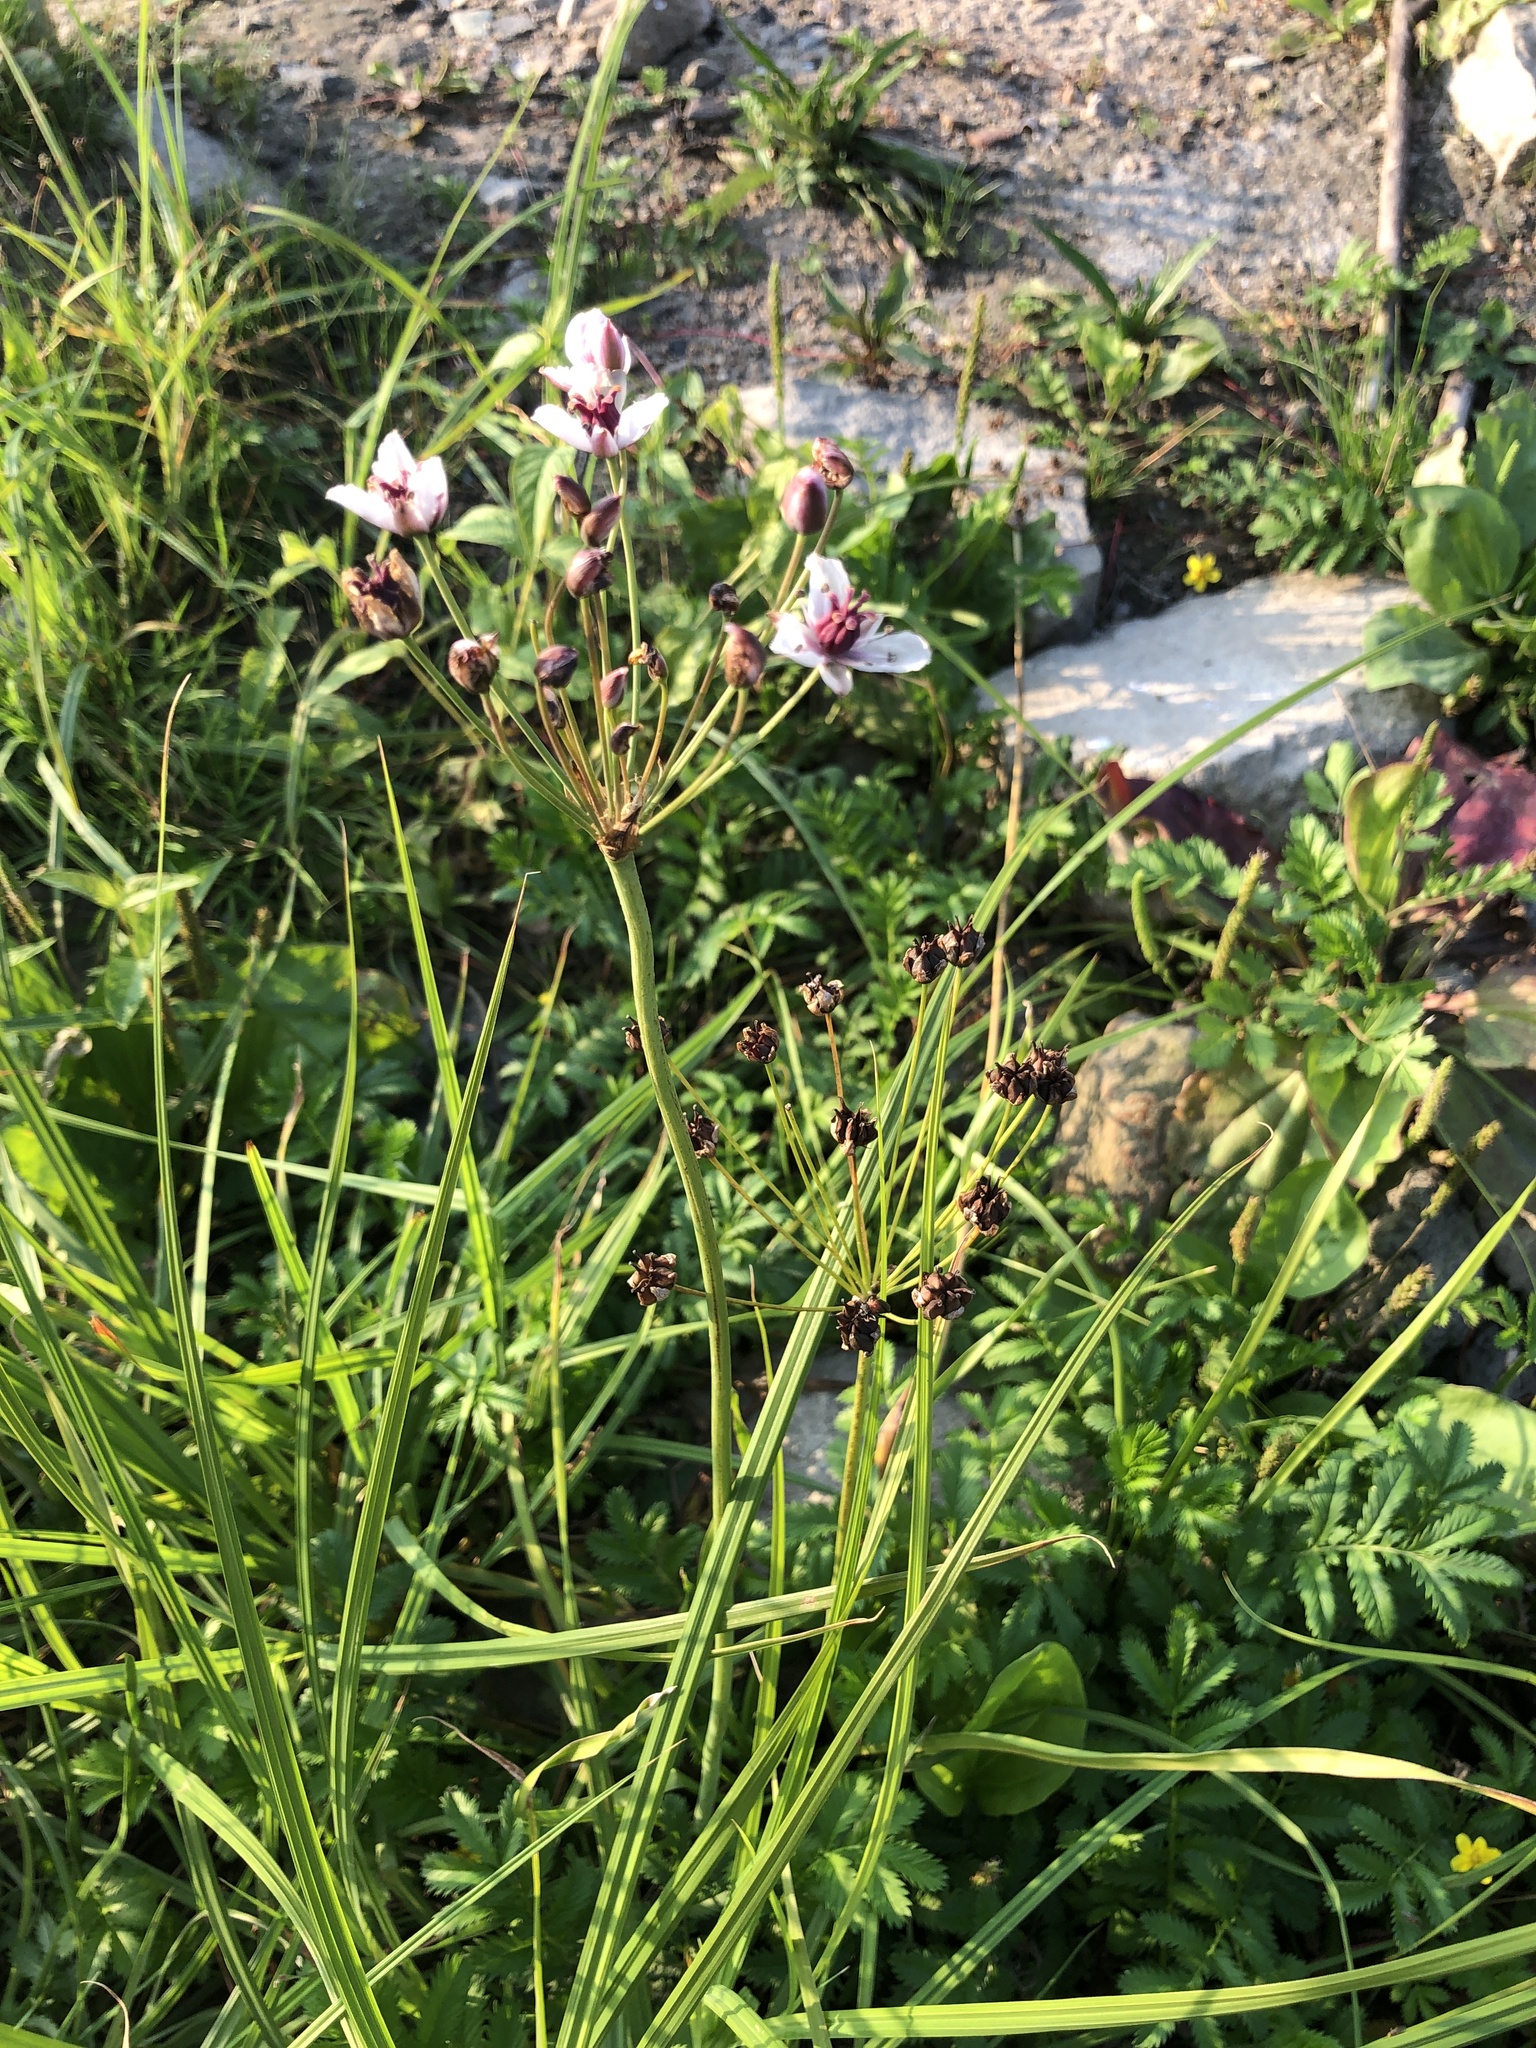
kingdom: Plantae
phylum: Tracheophyta
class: Liliopsida
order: Alismatales
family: Butomaceae
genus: Butomus
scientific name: Butomus umbellatus
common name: Flowering-rush
